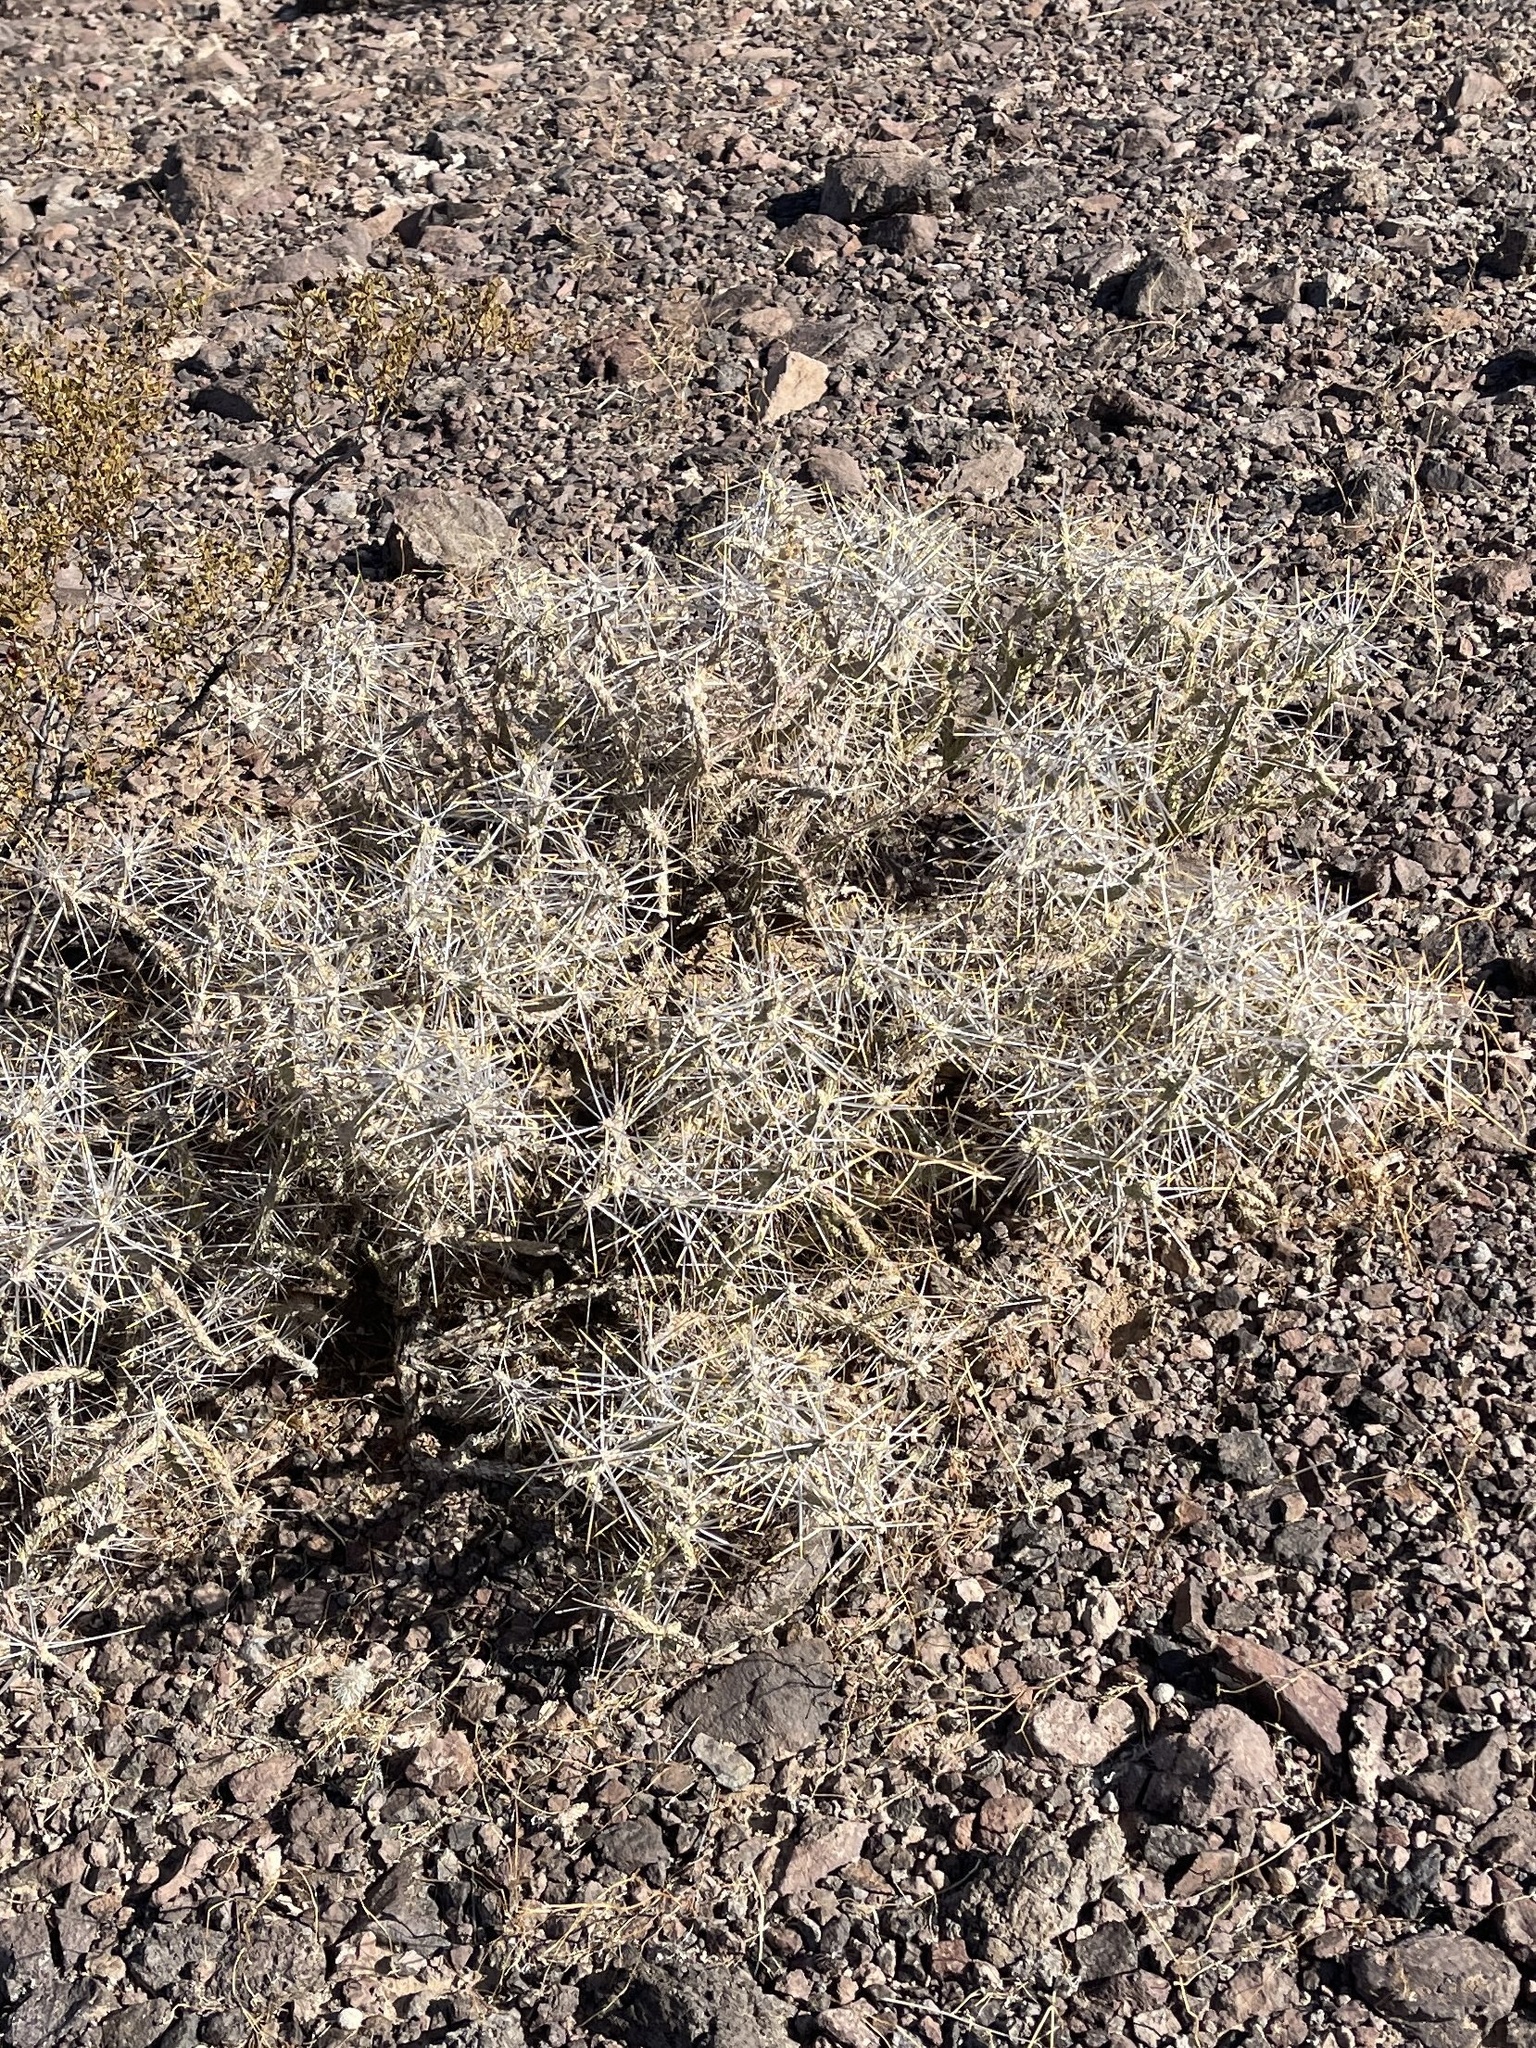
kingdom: Plantae
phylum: Tracheophyta
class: Magnoliopsida
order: Caryophyllales
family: Cactaceae
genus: Cylindropuntia
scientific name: Cylindropuntia ramosissima
